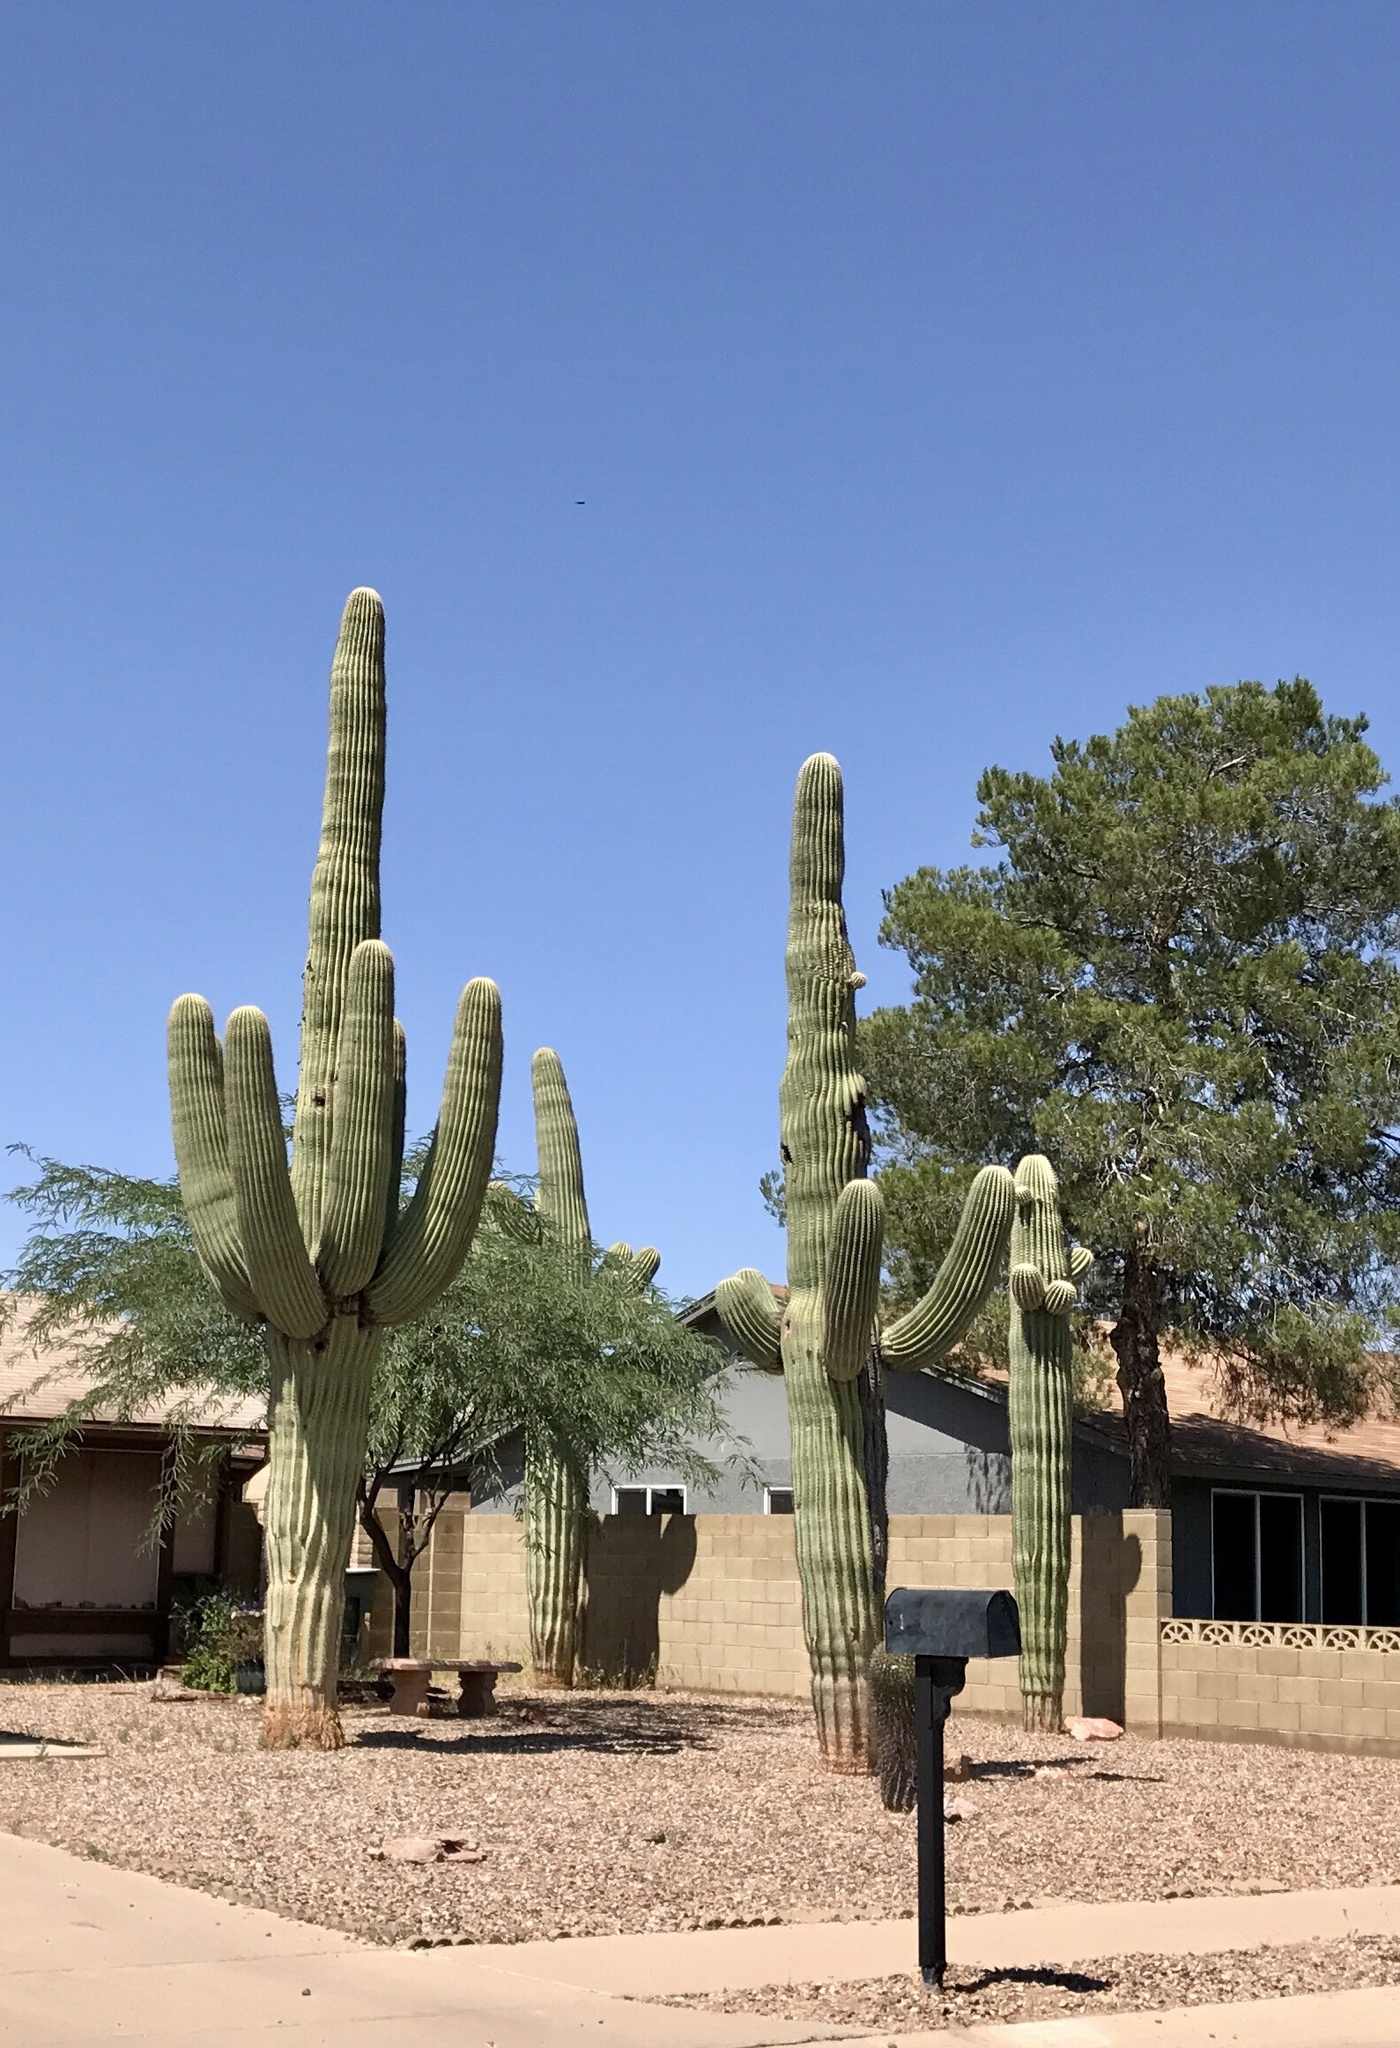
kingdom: Plantae
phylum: Tracheophyta
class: Magnoliopsida
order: Caryophyllales
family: Cactaceae
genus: Carnegiea
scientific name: Carnegiea gigantea
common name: Saguaro
